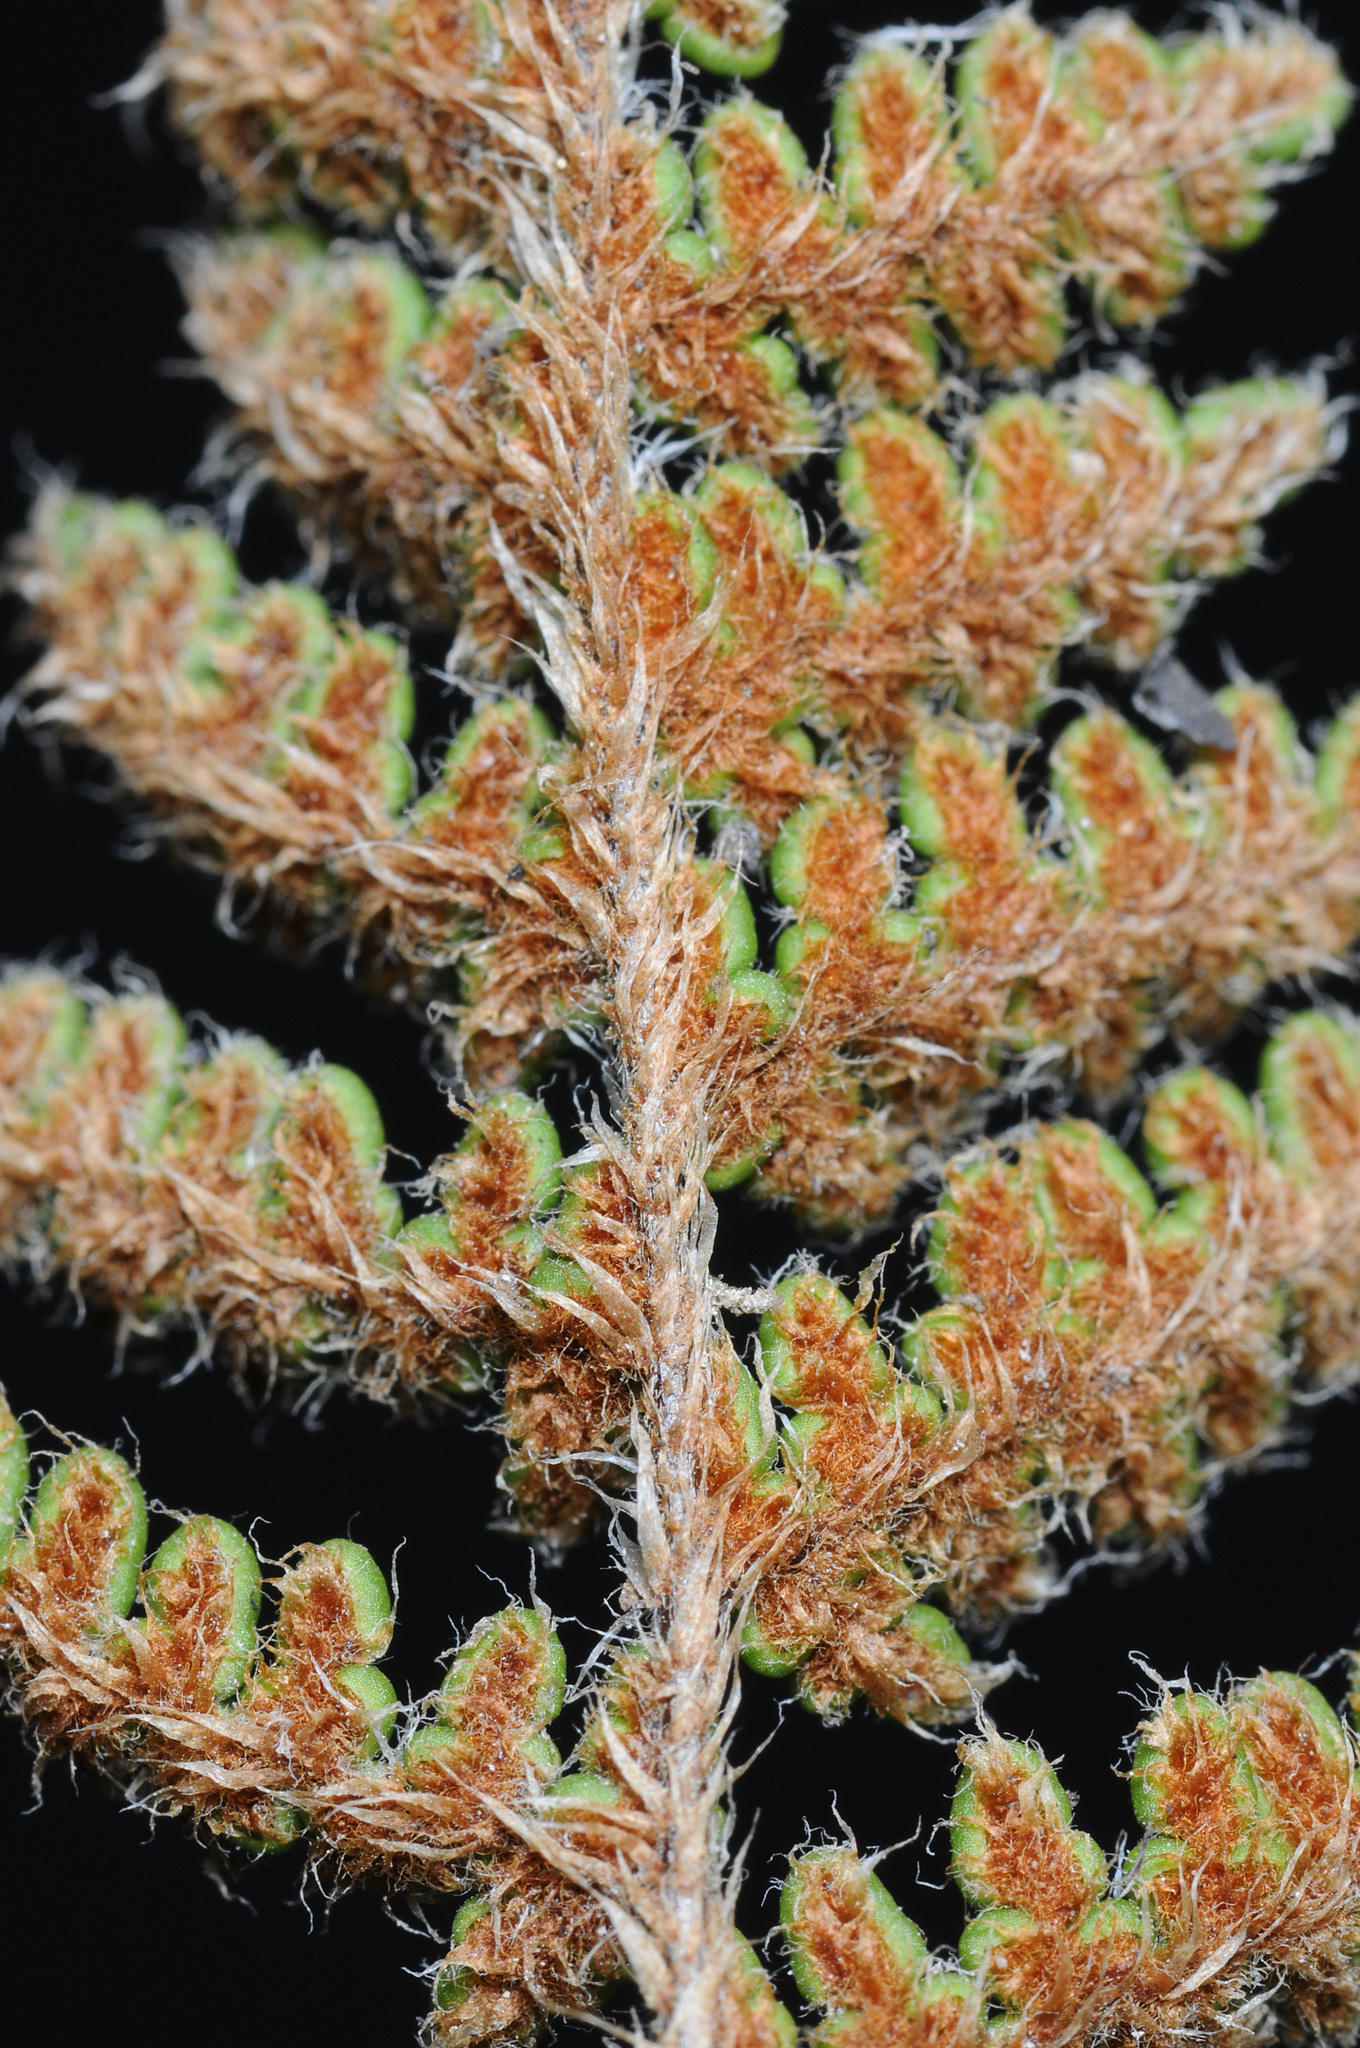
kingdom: Plantae
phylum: Tracheophyta
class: Polypodiopsida
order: Polypodiales
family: Pteridaceae
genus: Myriopteris
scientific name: Myriopteris intertexta
